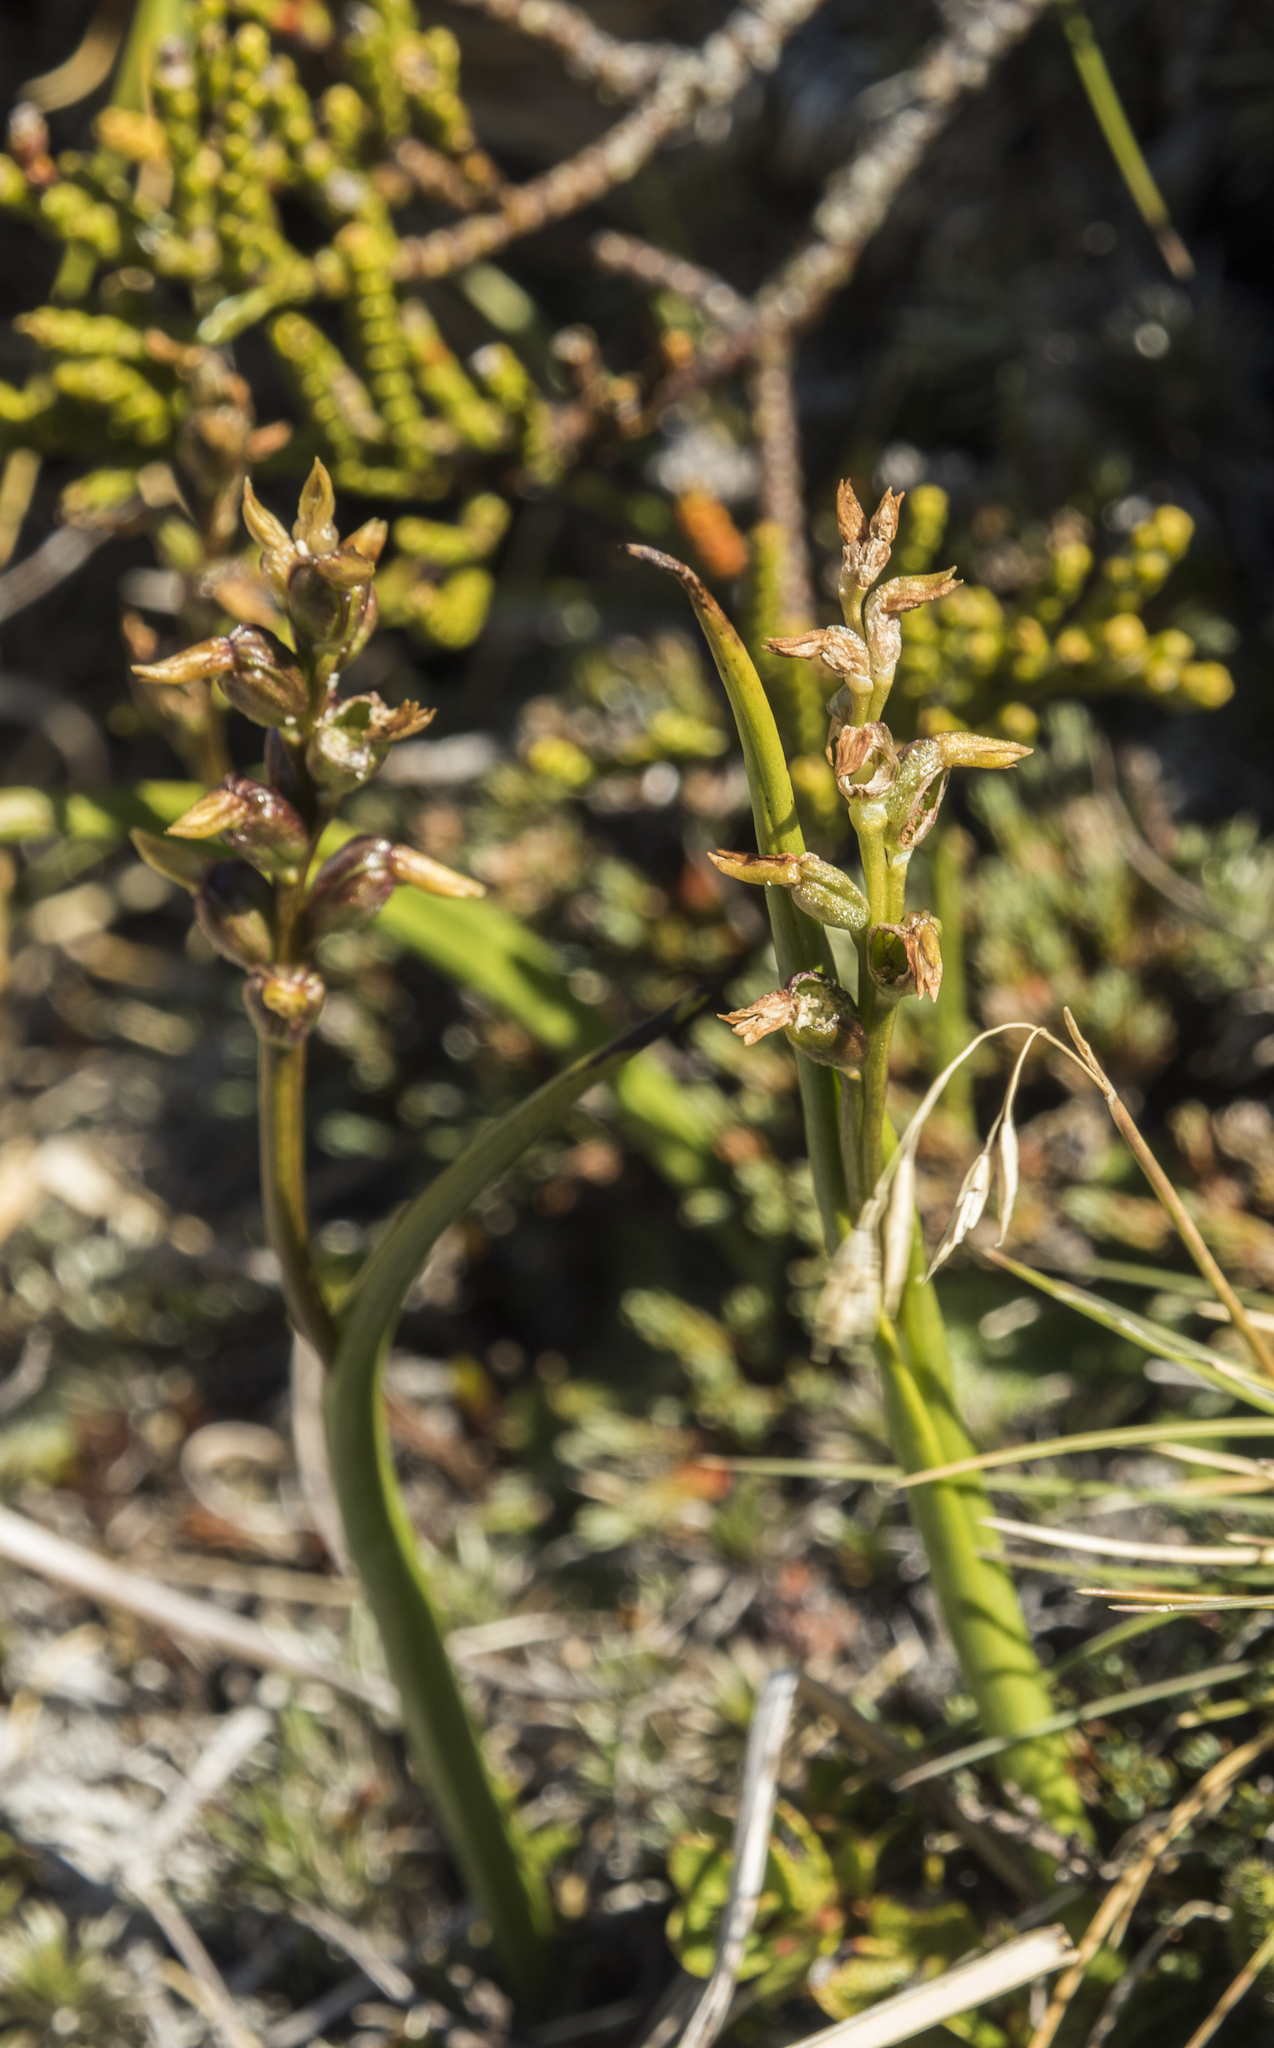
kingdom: Plantae
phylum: Tracheophyta
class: Liliopsida
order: Asparagales
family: Orchidaceae
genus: Prasophyllum
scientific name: Prasophyllum colensoi
